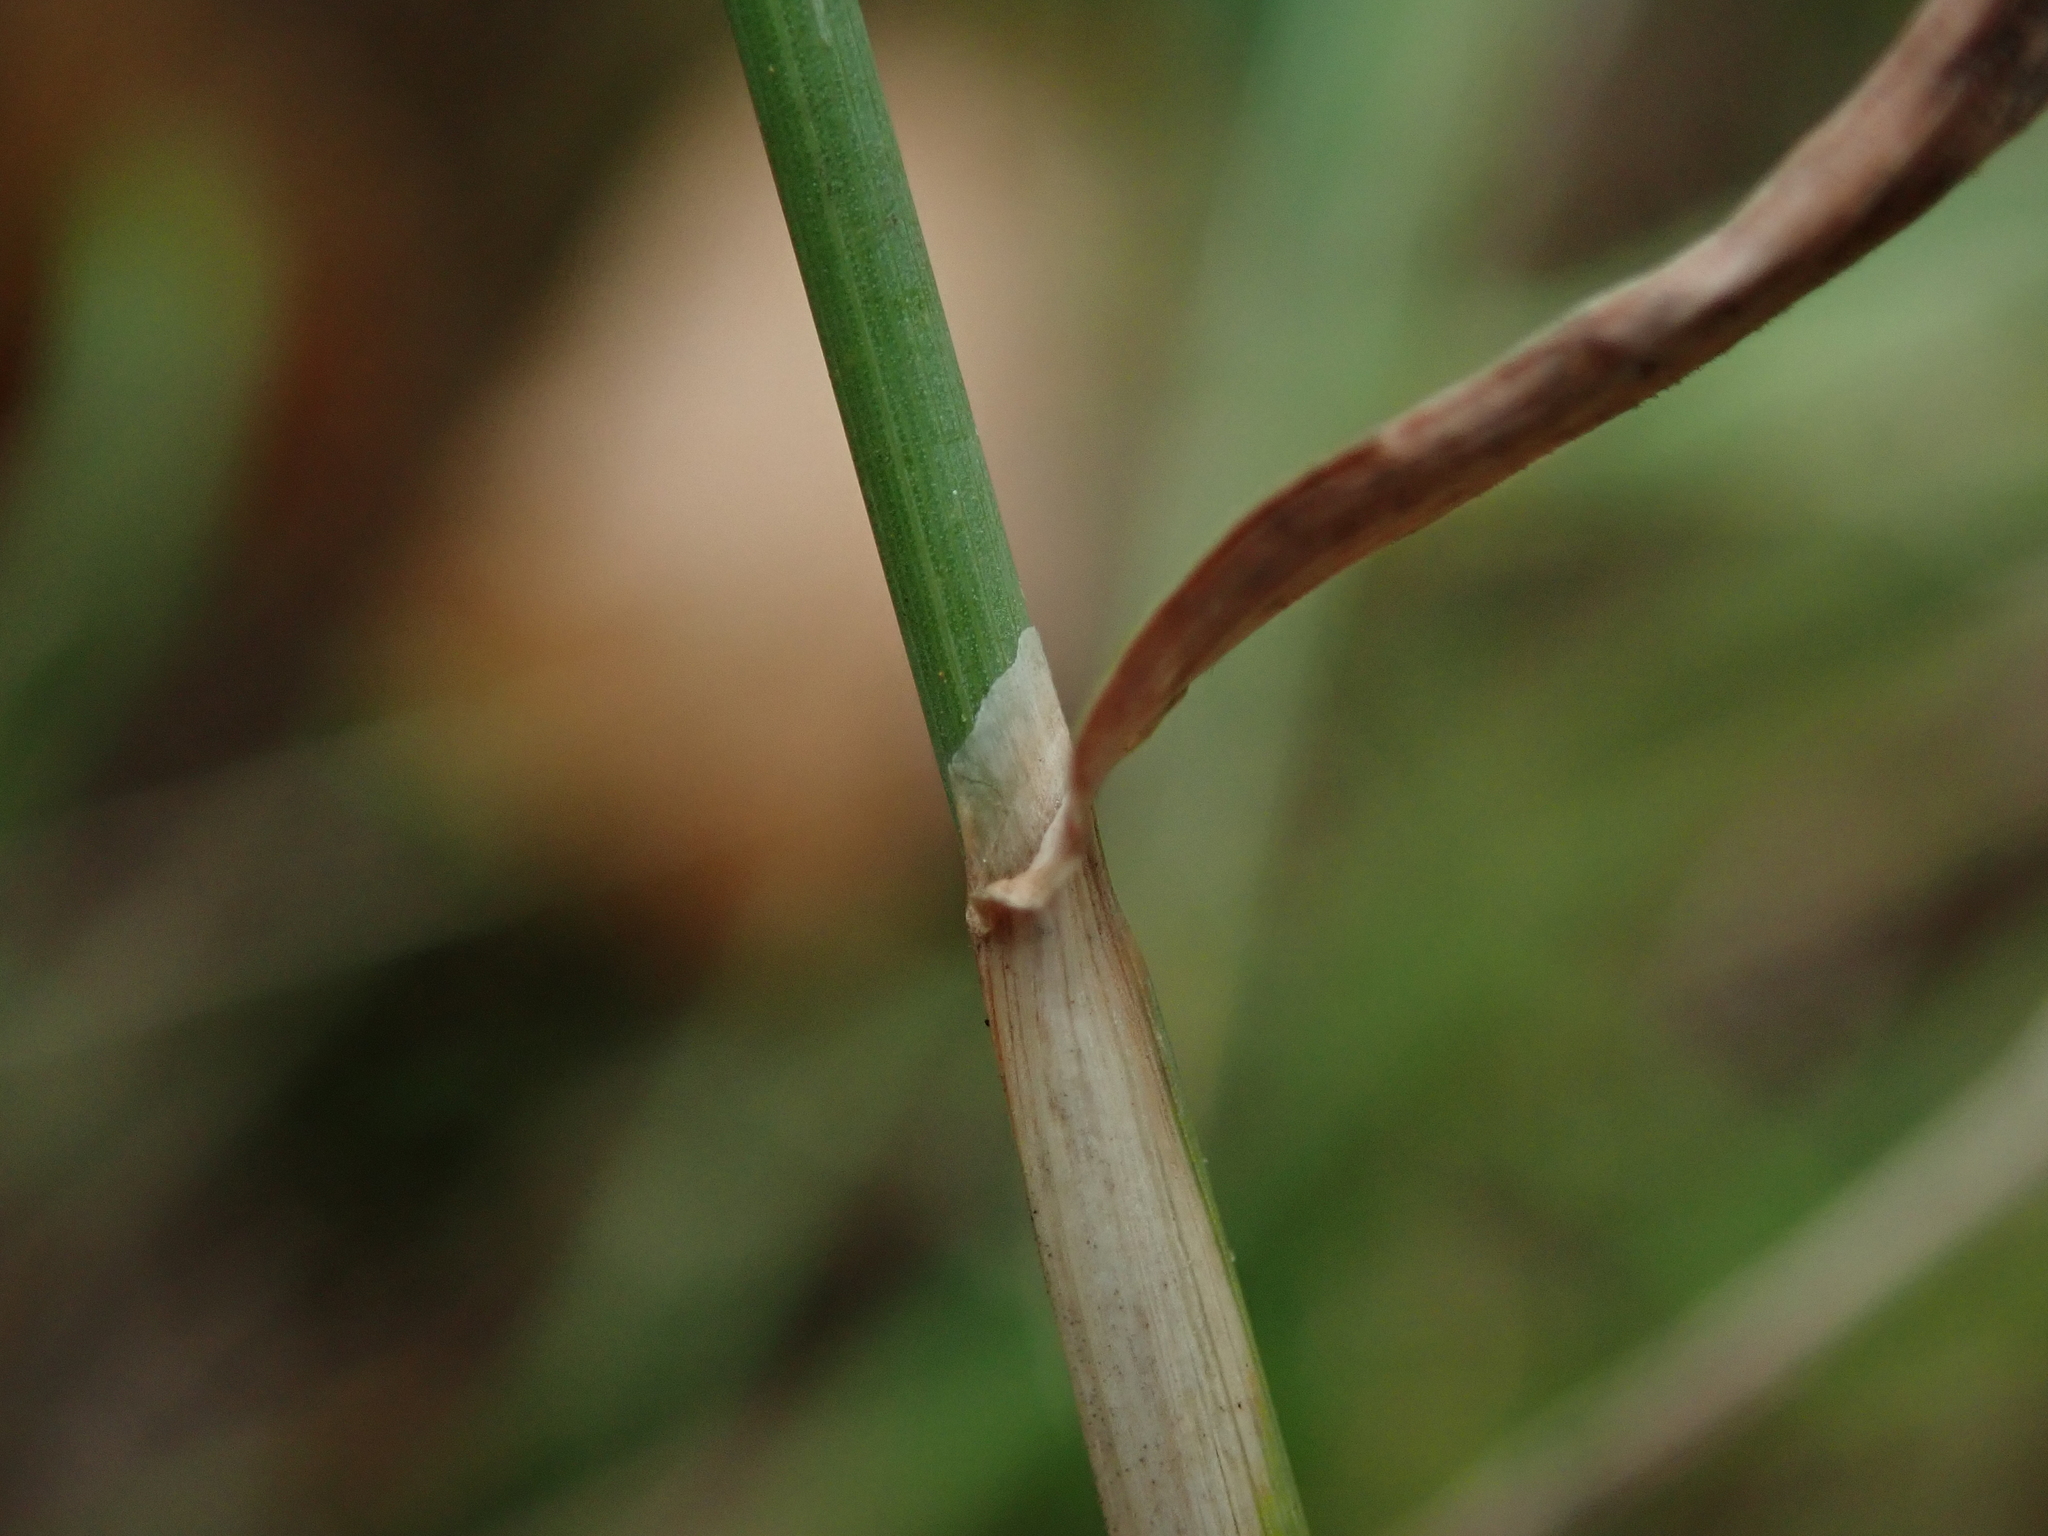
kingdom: Plantae
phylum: Tracheophyta
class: Liliopsida
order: Poales
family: Poaceae
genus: Phleum
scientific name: Phleum pratense
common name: Timothy grass
